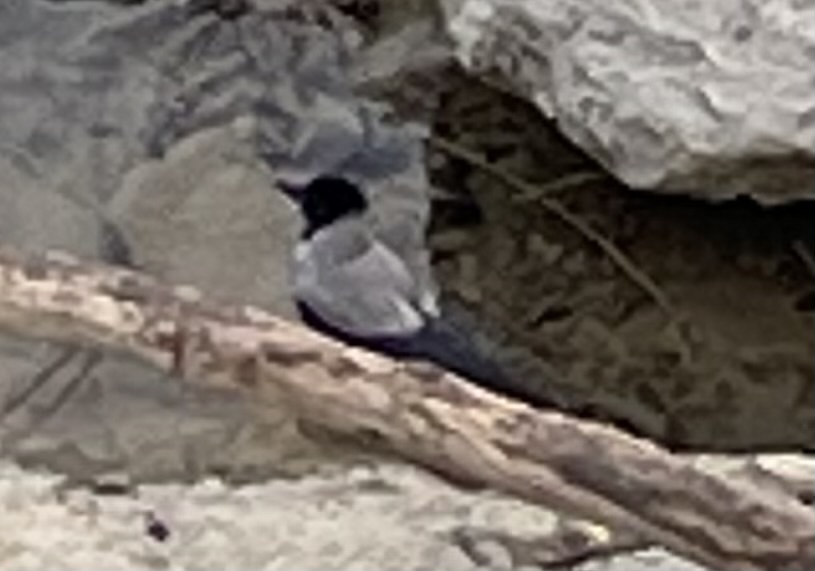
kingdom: Animalia
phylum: Chordata
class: Aves
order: Passeriformes
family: Corvidae
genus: Corvus
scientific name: Corvus cornix
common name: Hooded crow
